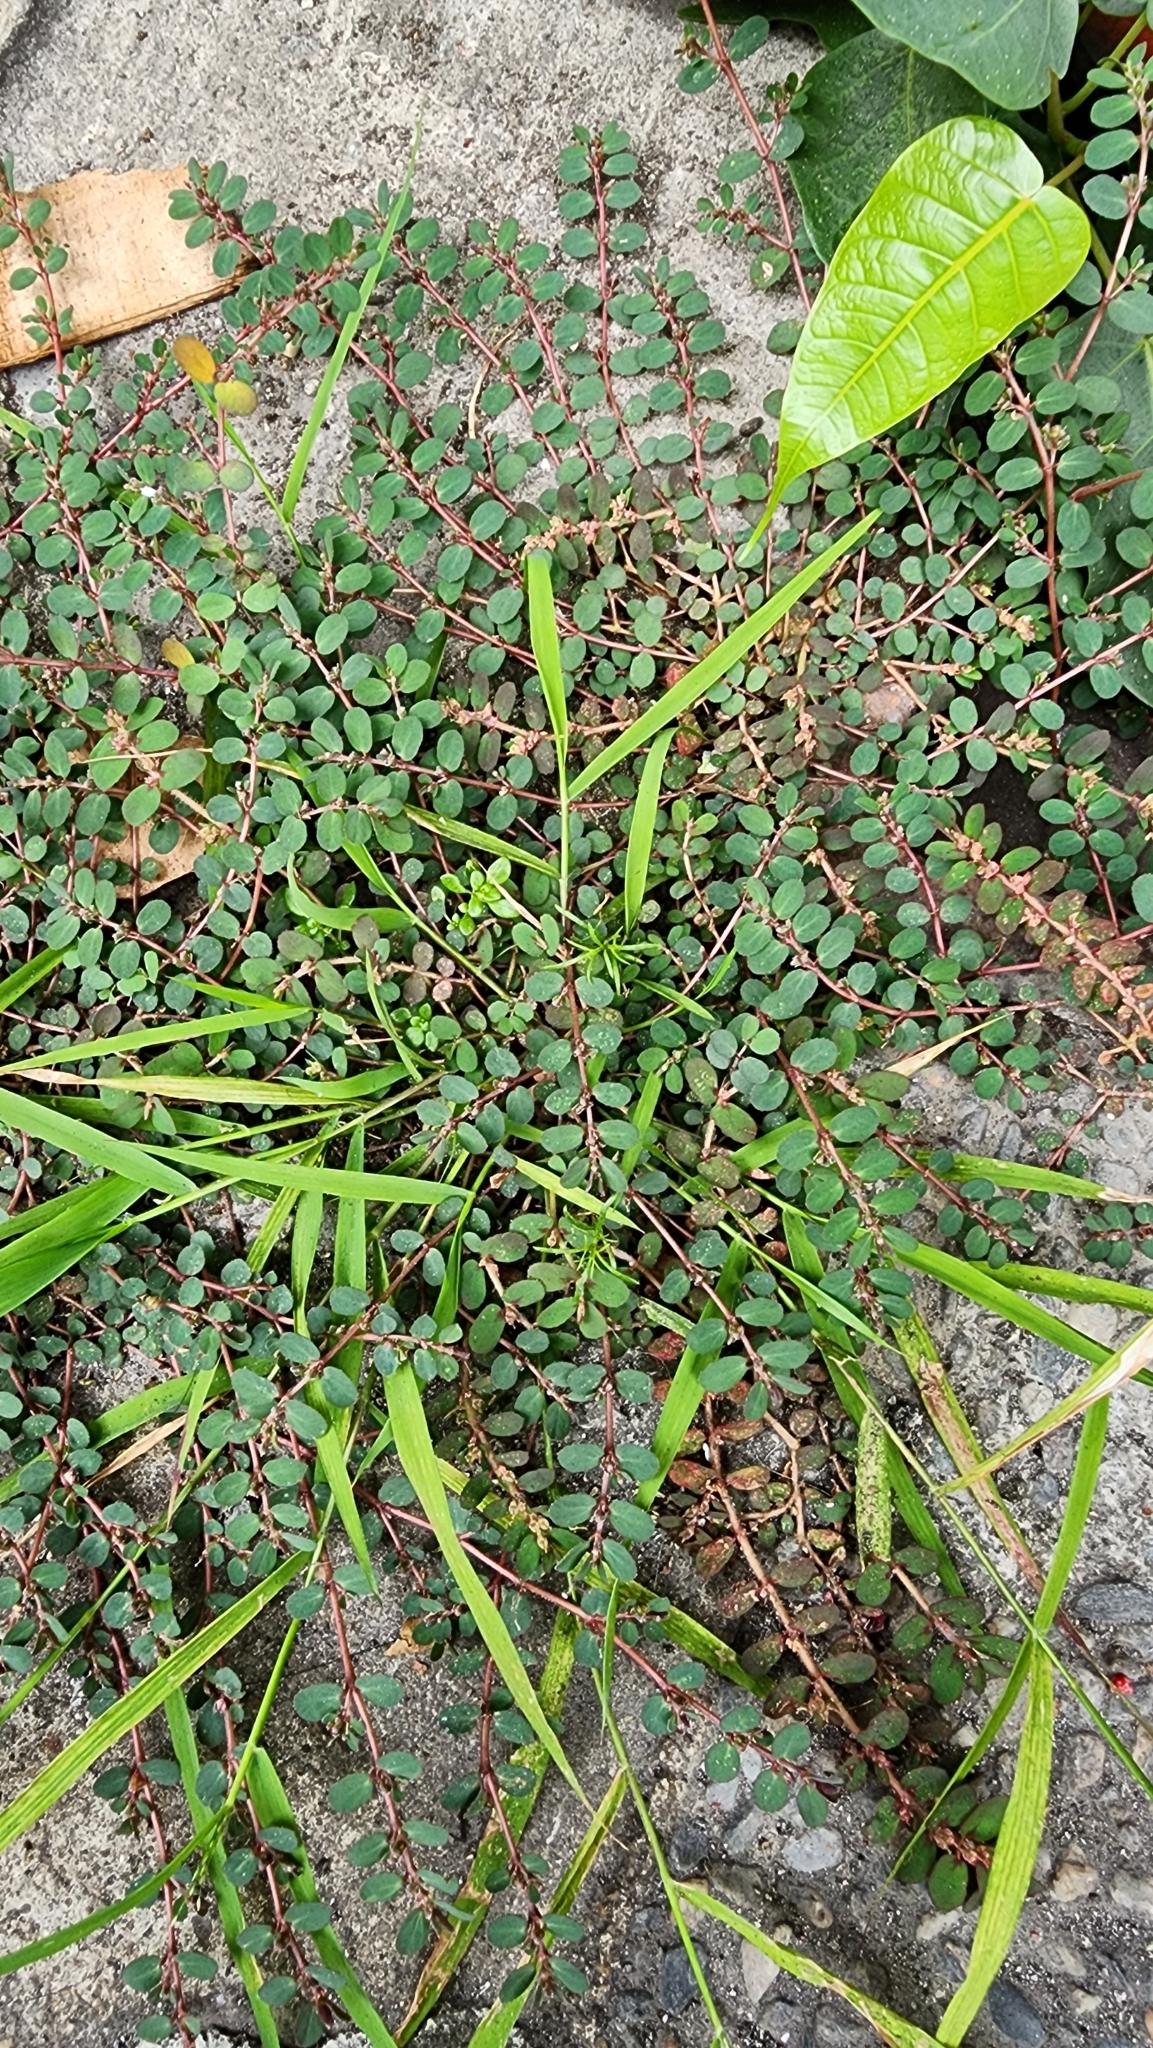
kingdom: Plantae
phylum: Tracheophyta
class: Magnoliopsida
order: Malpighiales
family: Euphorbiaceae
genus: Euphorbia
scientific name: Euphorbia prostrata
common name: Prostrate sandmat
